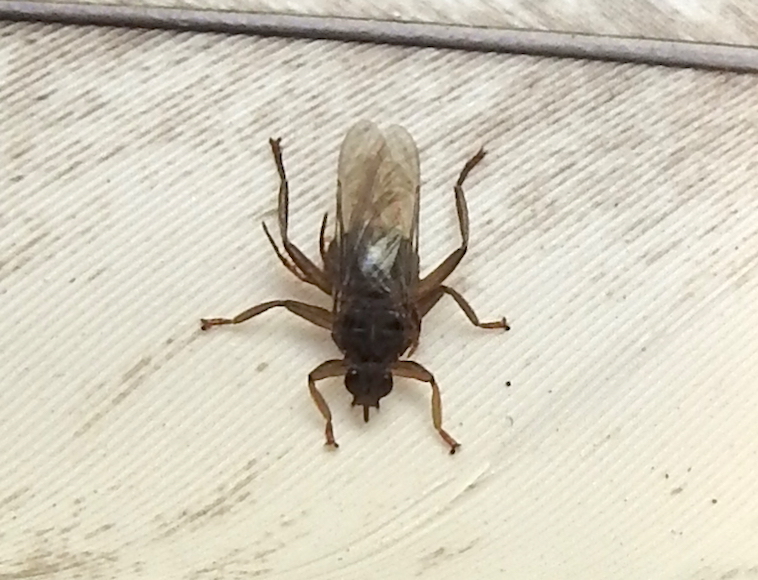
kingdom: Animalia
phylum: Arthropoda
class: Insecta
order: Diptera
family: Hippoboscidae
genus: Pseudolynchia
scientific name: Pseudolynchia canariensis
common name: Louse fly
